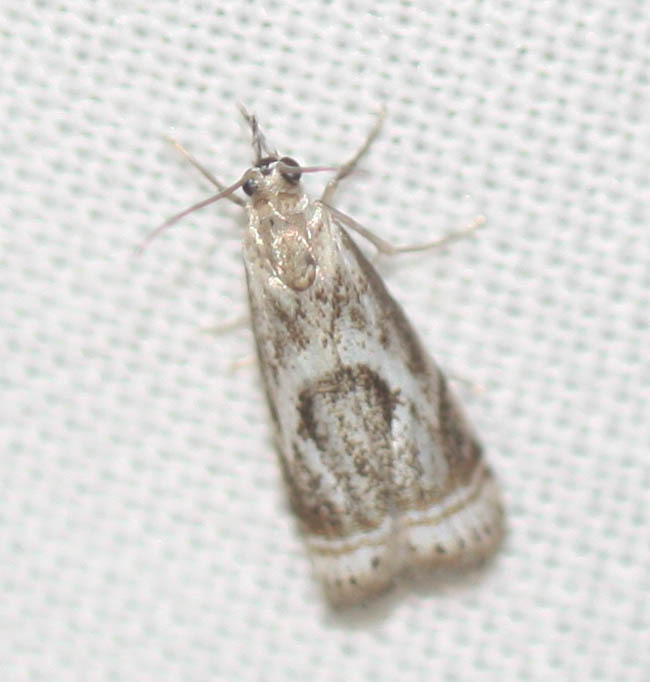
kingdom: Animalia
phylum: Arthropoda
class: Insecta
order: Lepidoptera
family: Crambidae
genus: Microcrambus
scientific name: Microcrambus elegans
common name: Elegant grass-veneer
